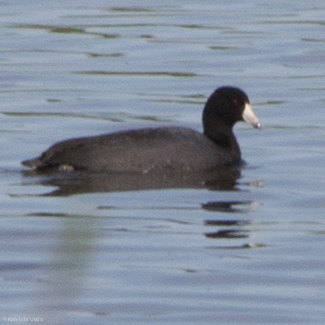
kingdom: Animalia
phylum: Chordata
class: Aves
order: Gruiformes
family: Rallidae
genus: Fulica
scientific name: Fulica americana
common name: American coot
